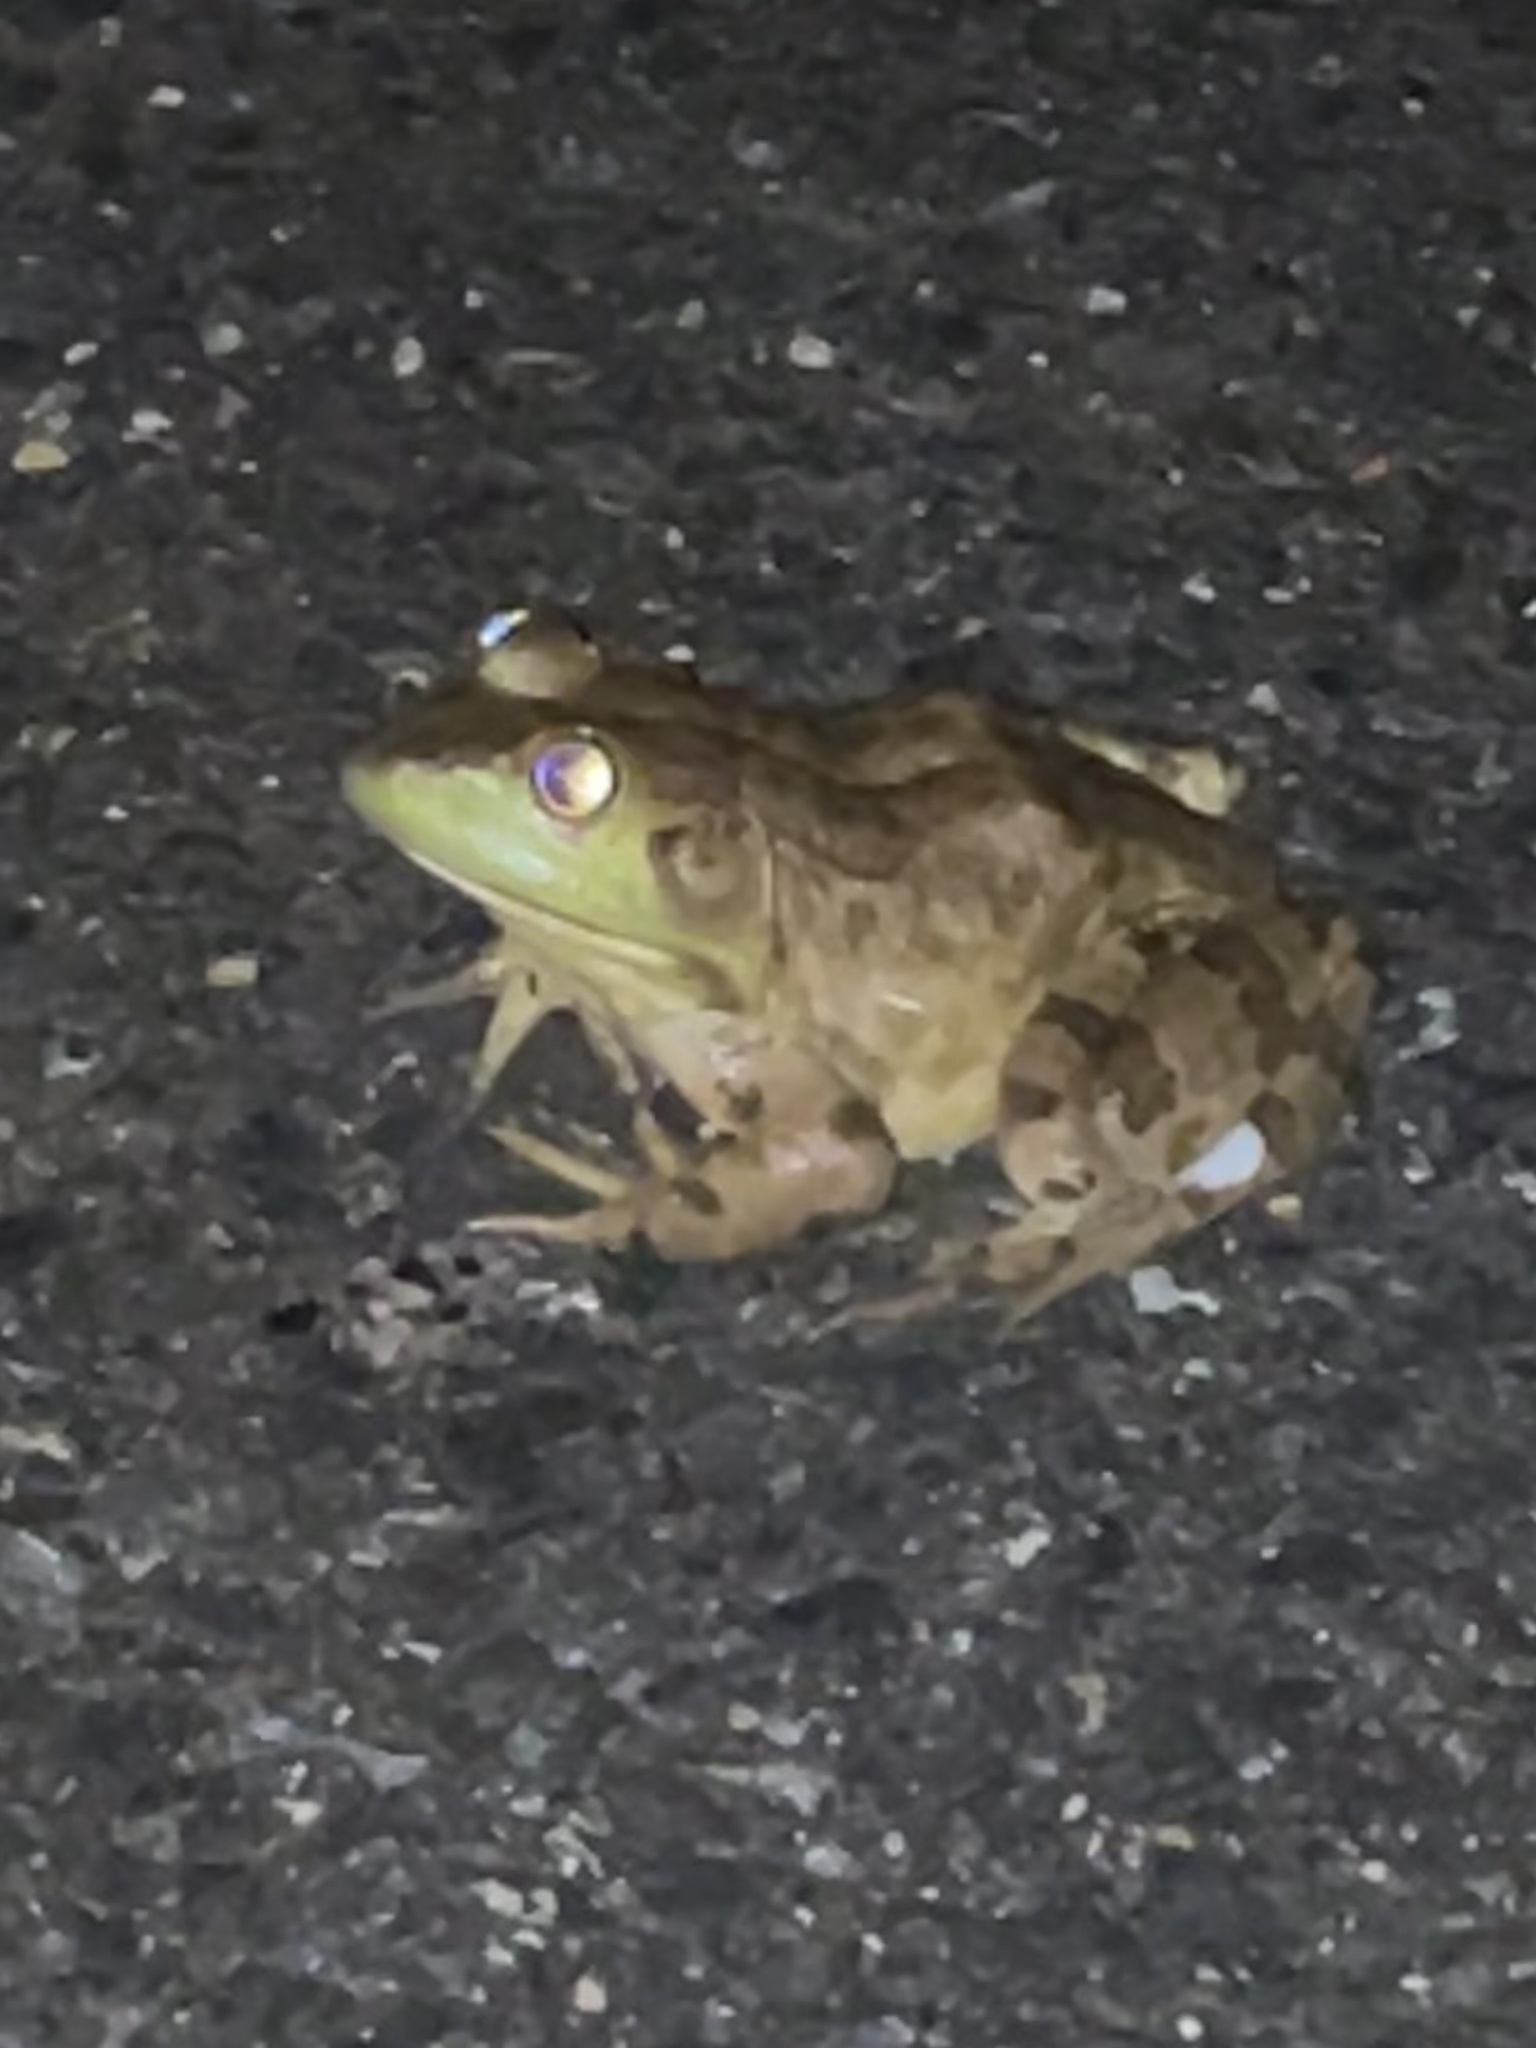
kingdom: Animalia
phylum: Chordata
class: Amphibia
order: Anura
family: Ranidae
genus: Lithobates
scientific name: Lithobates catesbeianus
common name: American bullfrog
